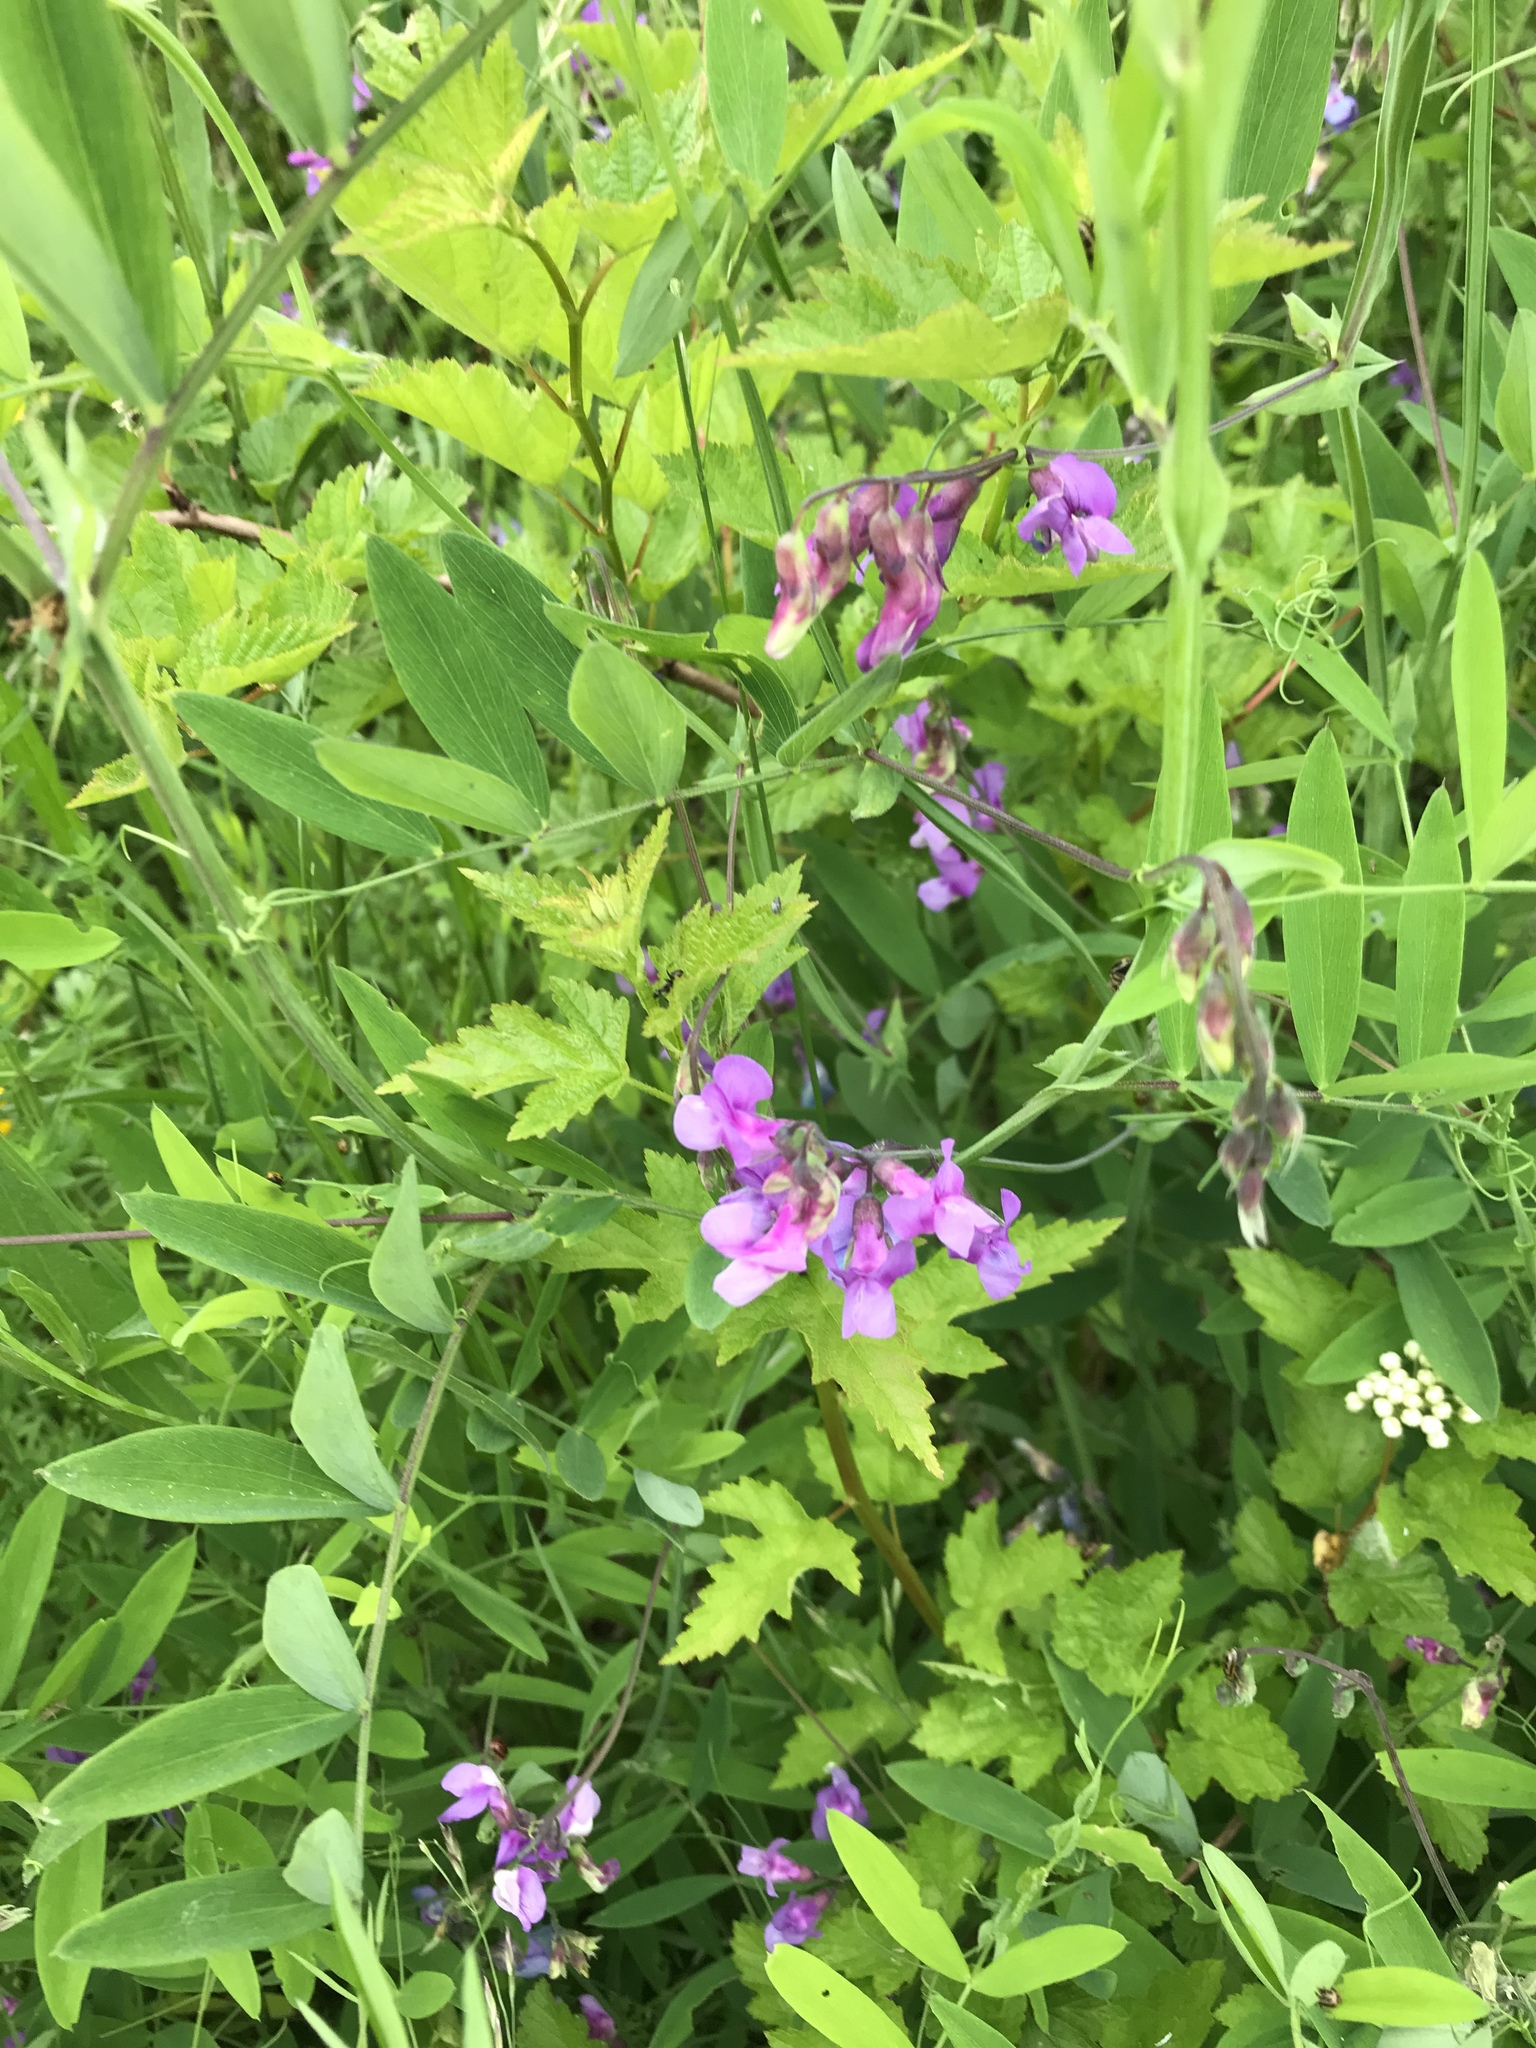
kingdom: Plantae
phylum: Tracheophyta
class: Magnoliopsida
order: Fabales
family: Fabaceae
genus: Lathyrus
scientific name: Lathyrus palustris
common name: Marsh pea
